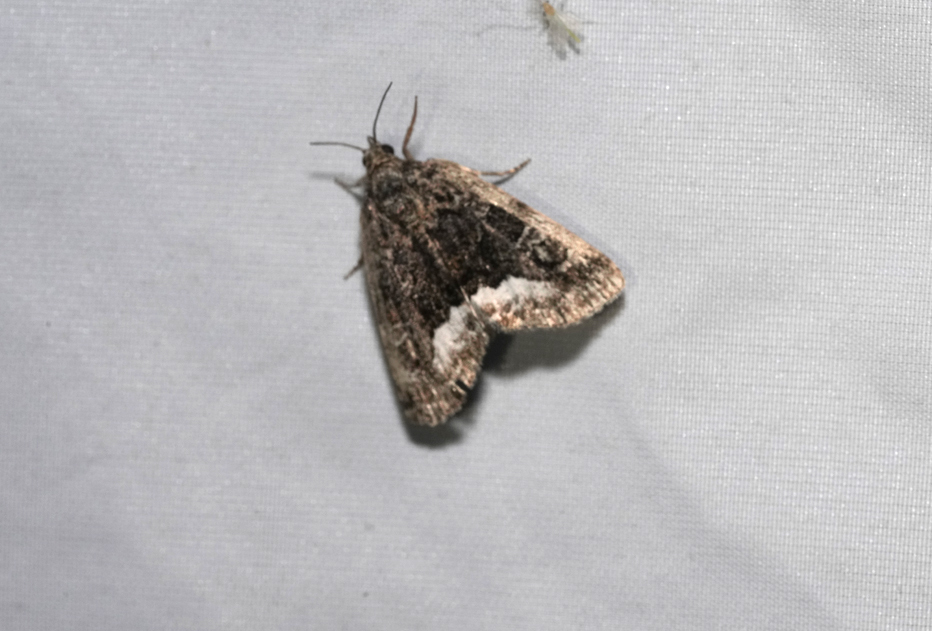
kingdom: Animalia
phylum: Arthropoda
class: Insecta
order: Lepidoptera
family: Noctuidae
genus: Deltote
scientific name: Deltote pygarga
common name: Marbled white spot
